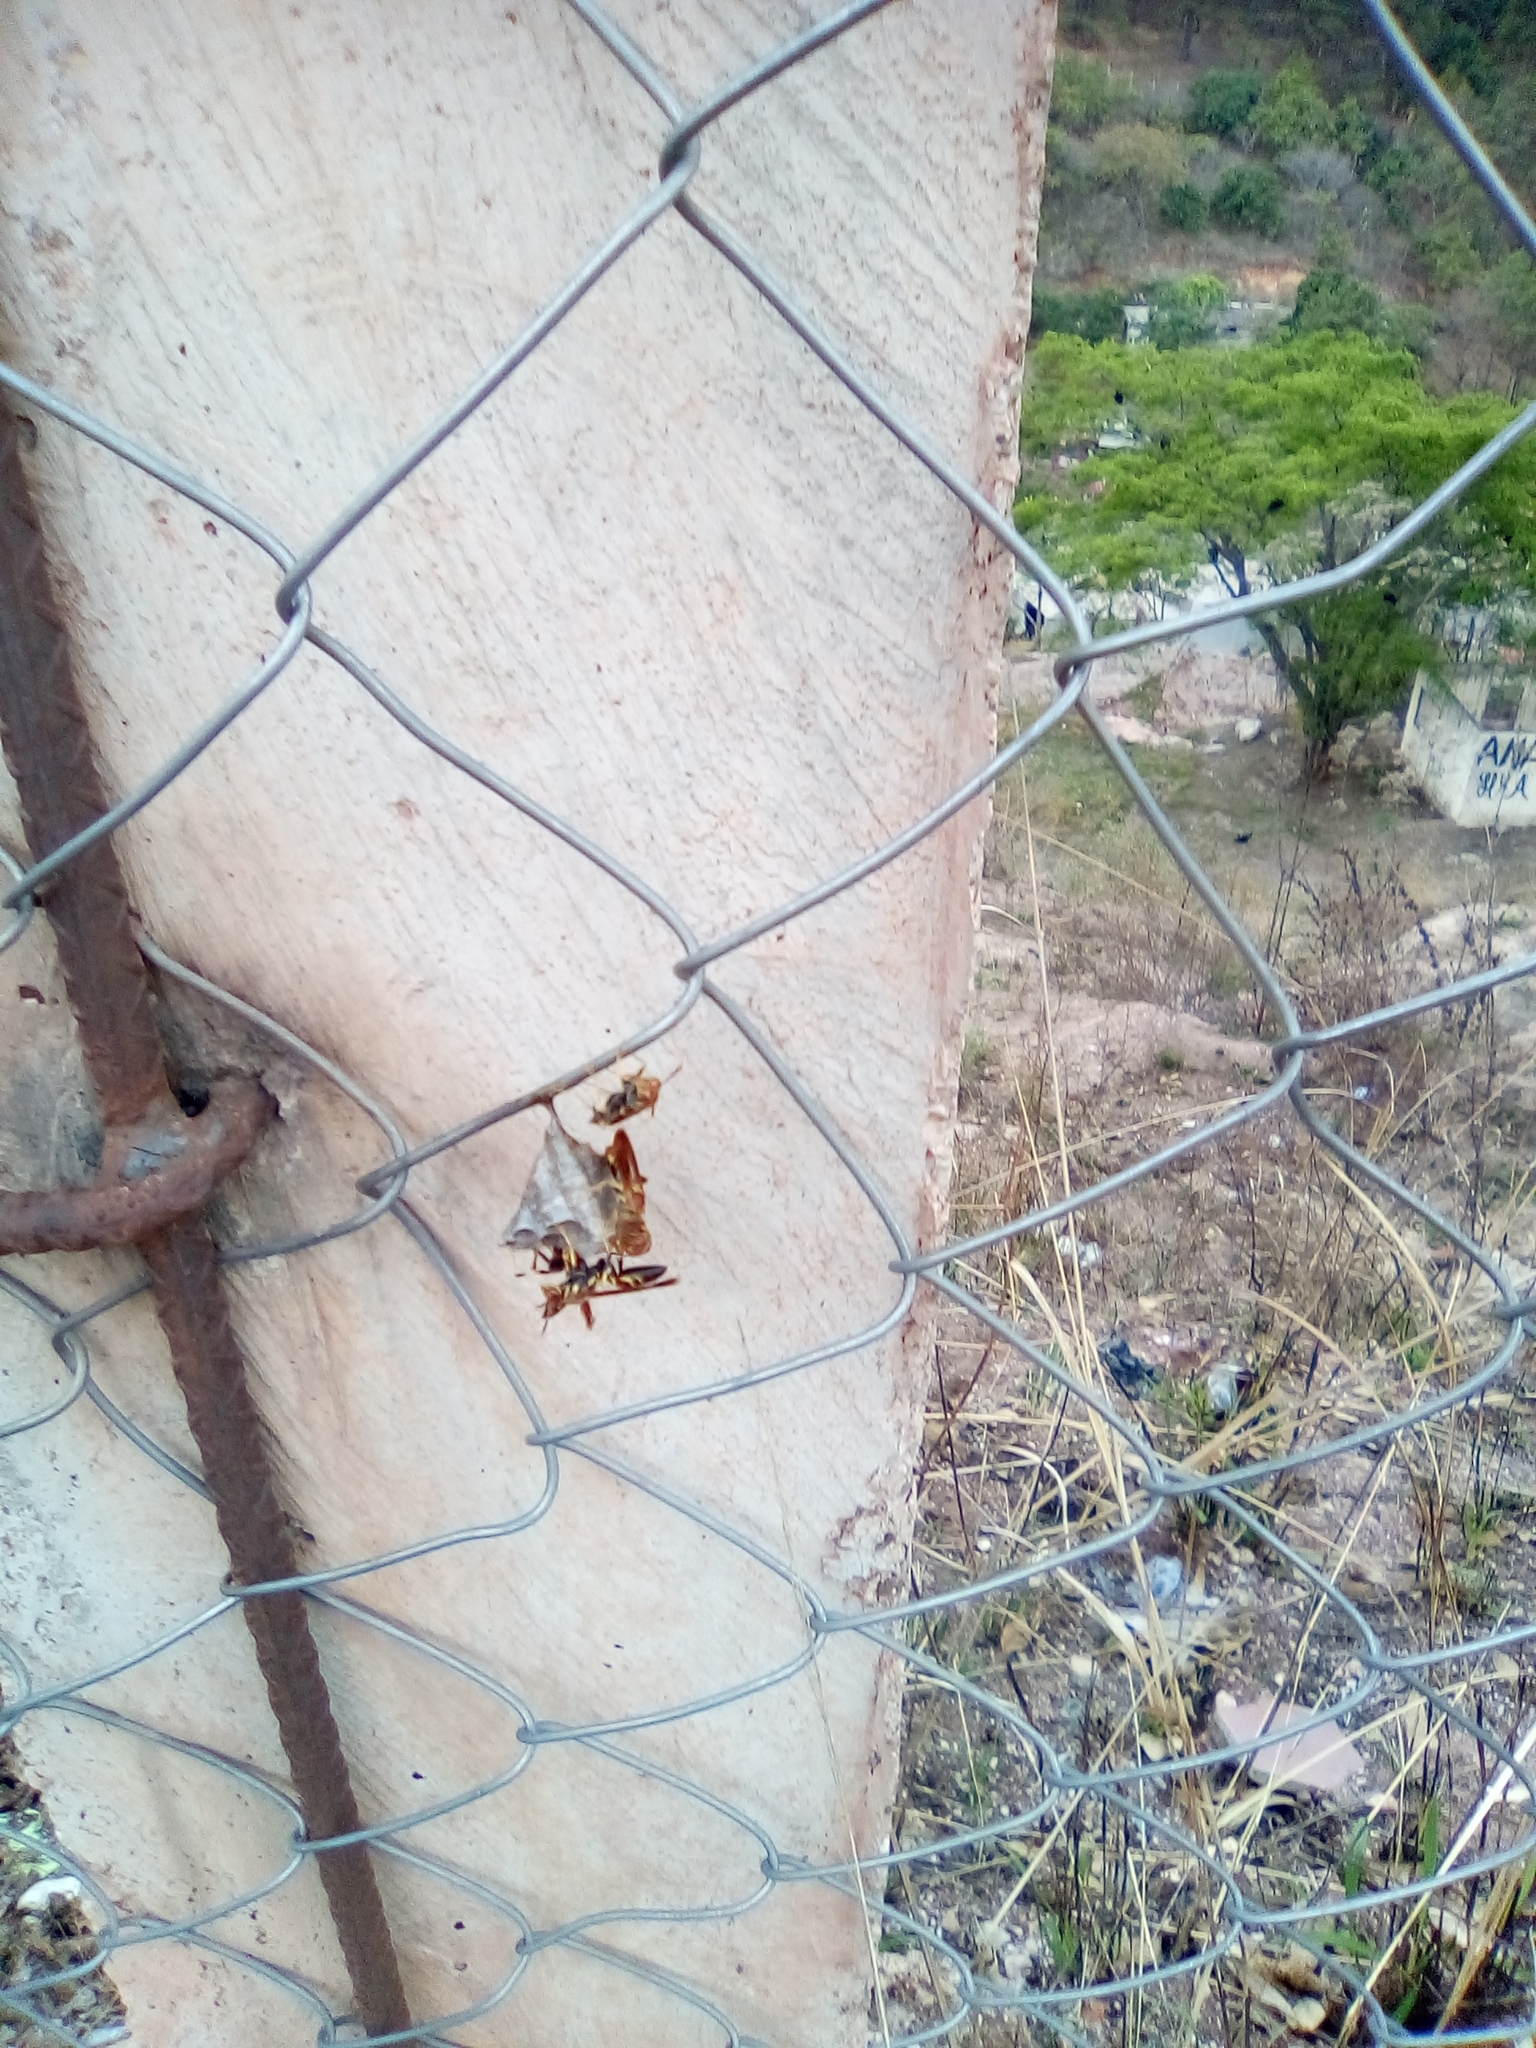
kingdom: Animalia
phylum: Arthropoda
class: Insecta
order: Hymenoptera
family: Eumenidae
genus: Polistes
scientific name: Polistes instabilis
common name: Unstable paper wasp
